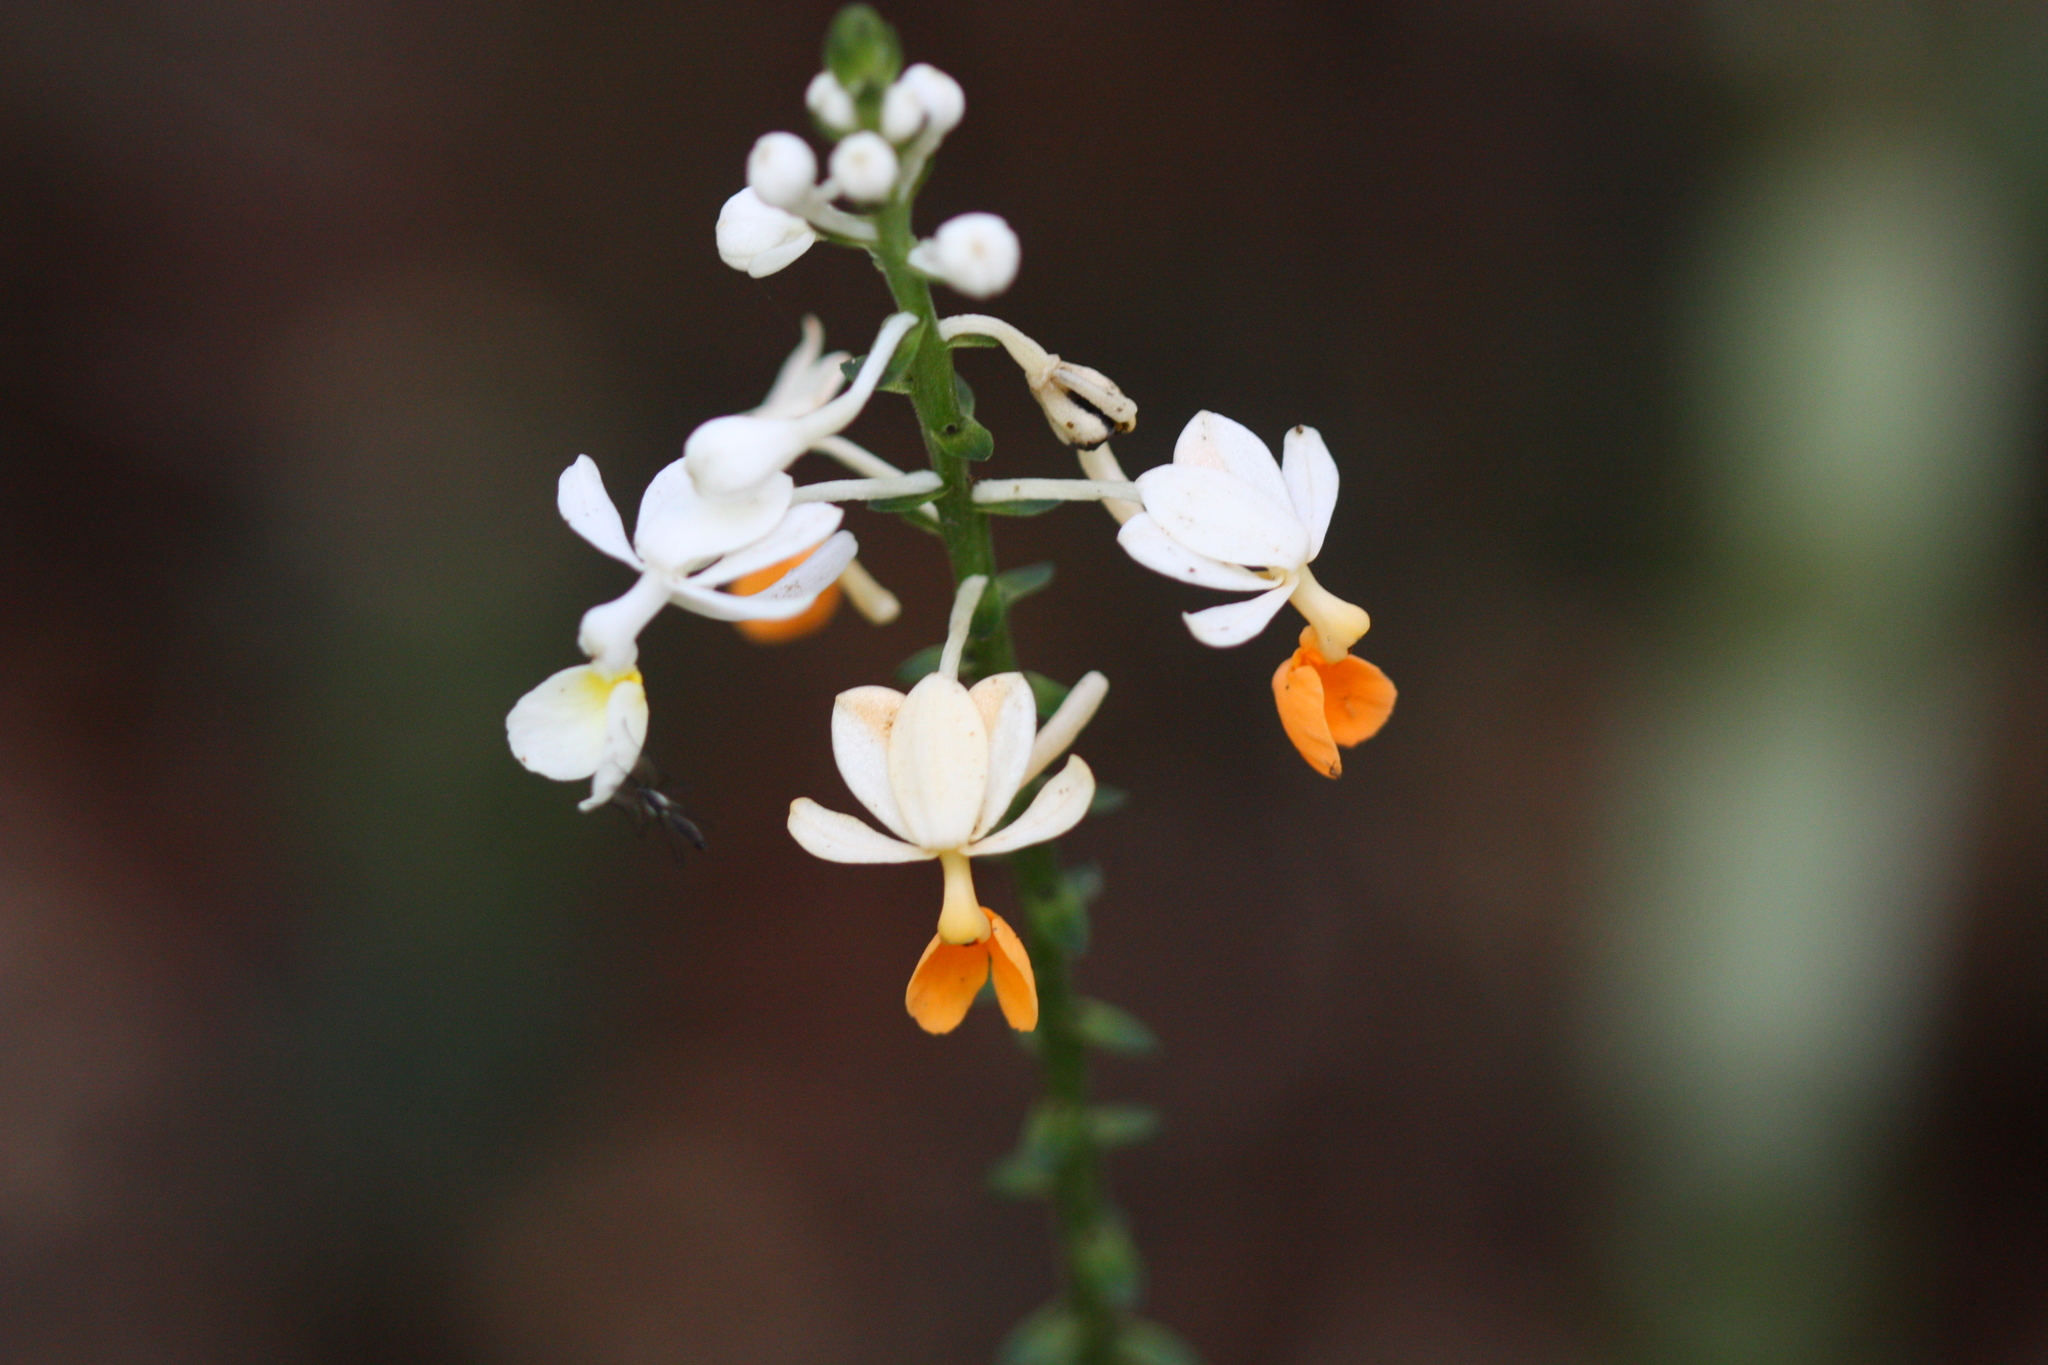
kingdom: Plantae
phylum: Tracheophyta
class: Liliopsida
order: Asparagales
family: Orchidaceae
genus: Calanthe
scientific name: Calanthe zollingeri
